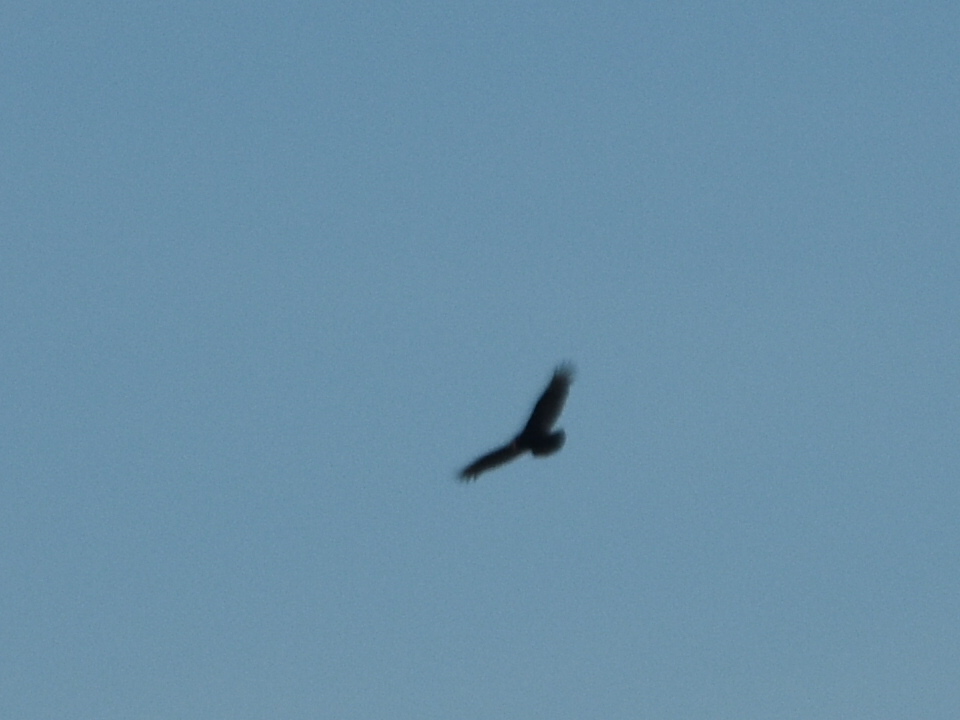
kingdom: Animalia
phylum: Chordata
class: Aves
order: Accipitriformes
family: Cathartidae
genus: Cathartes
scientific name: Cathartes aura
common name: Turkey vulture
